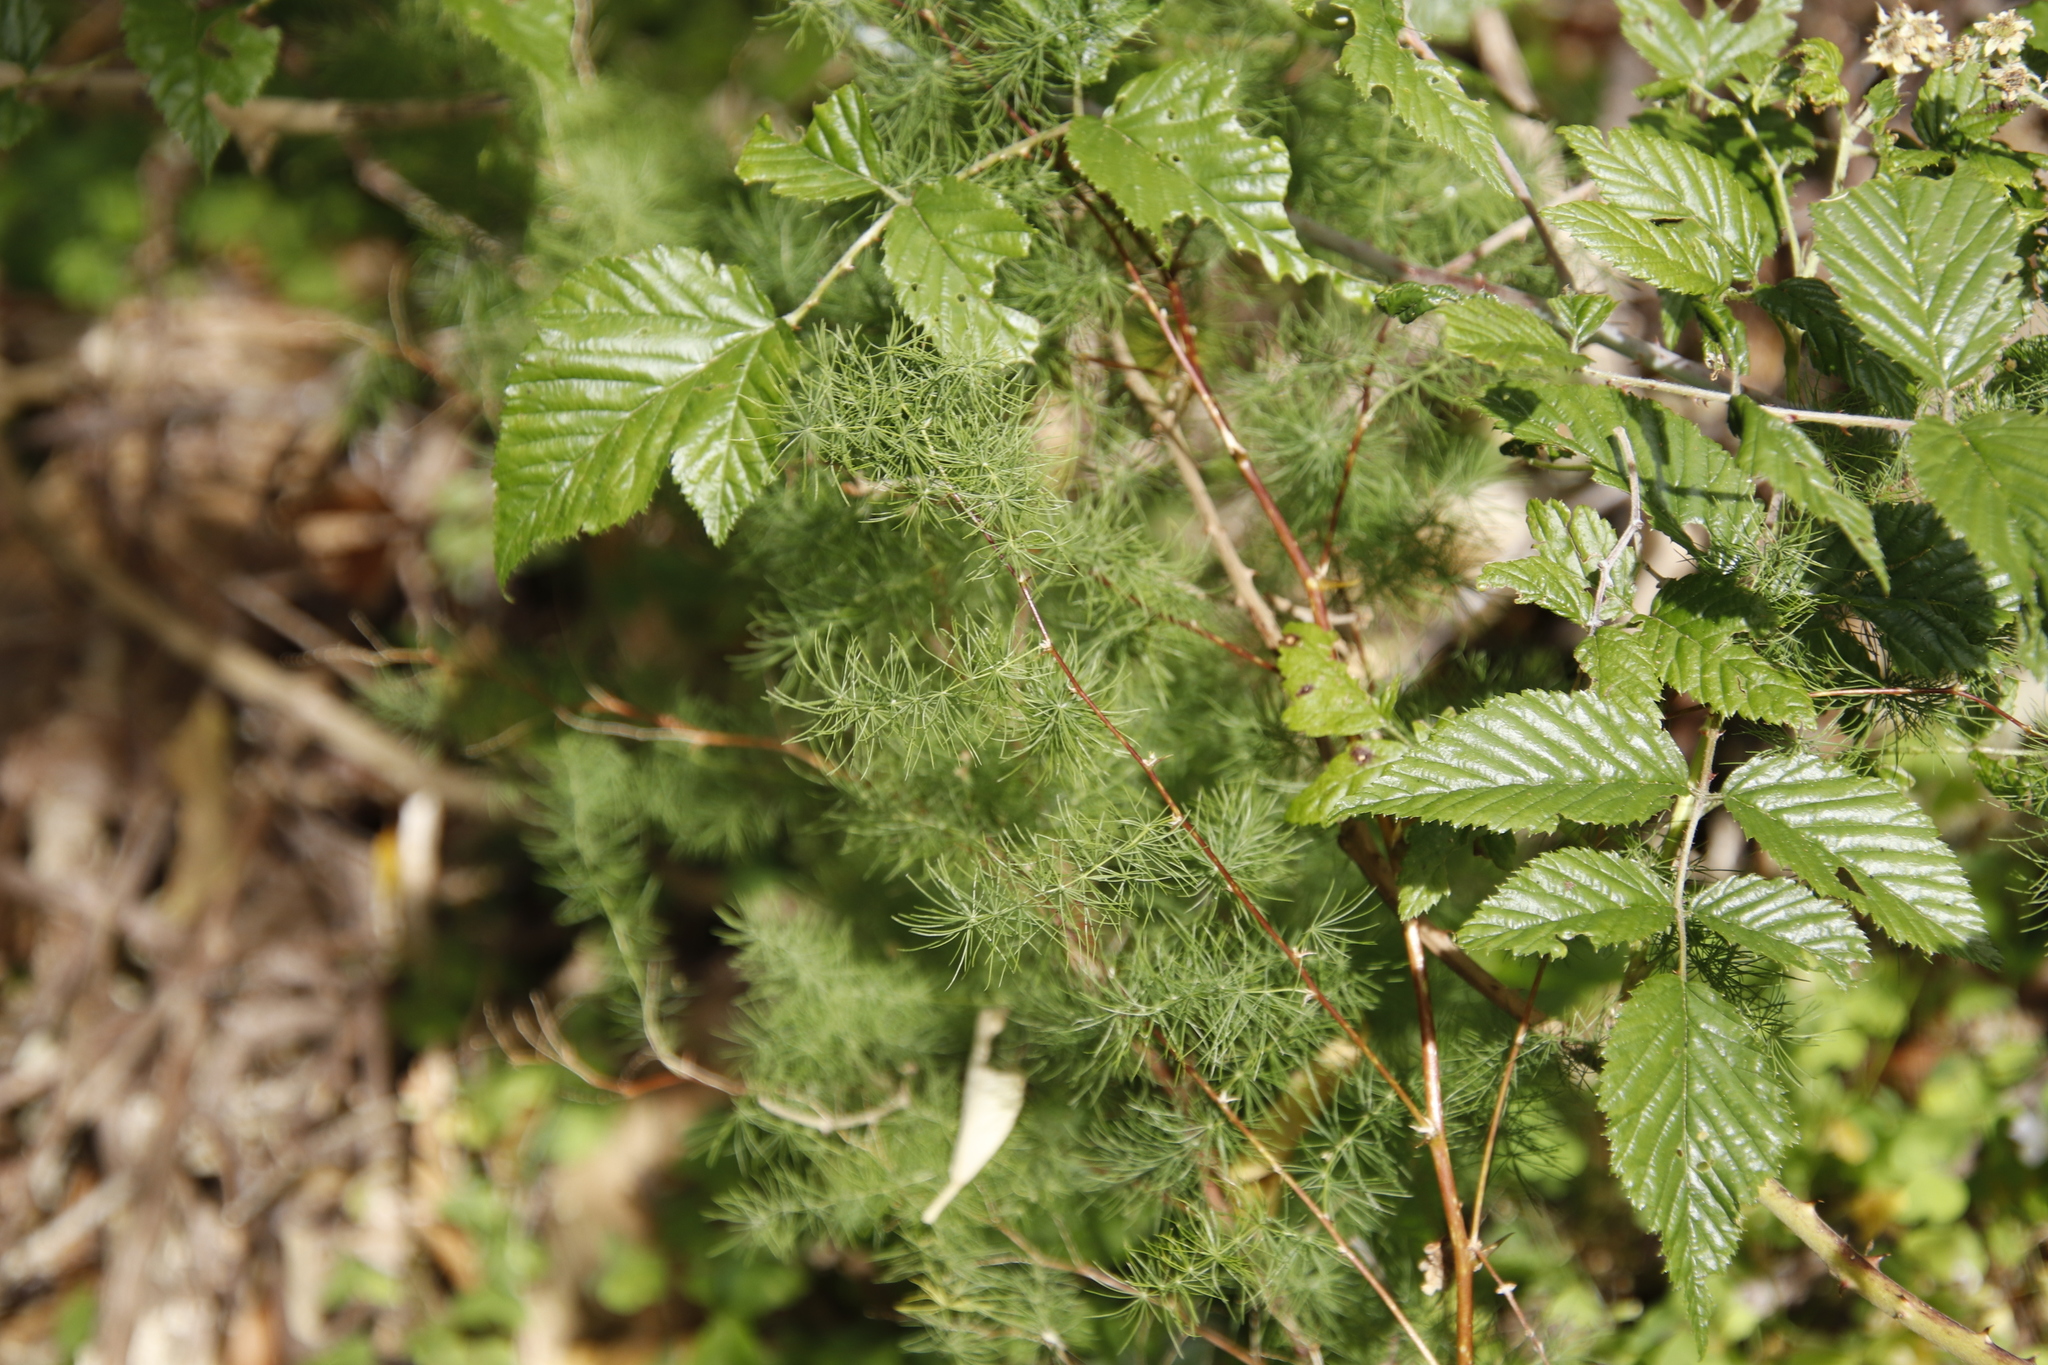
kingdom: Plantae
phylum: Tracheophyta
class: Magnoliopsida
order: Rosales
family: Rosaceae
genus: Rubus
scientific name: Rubus pinnatus
